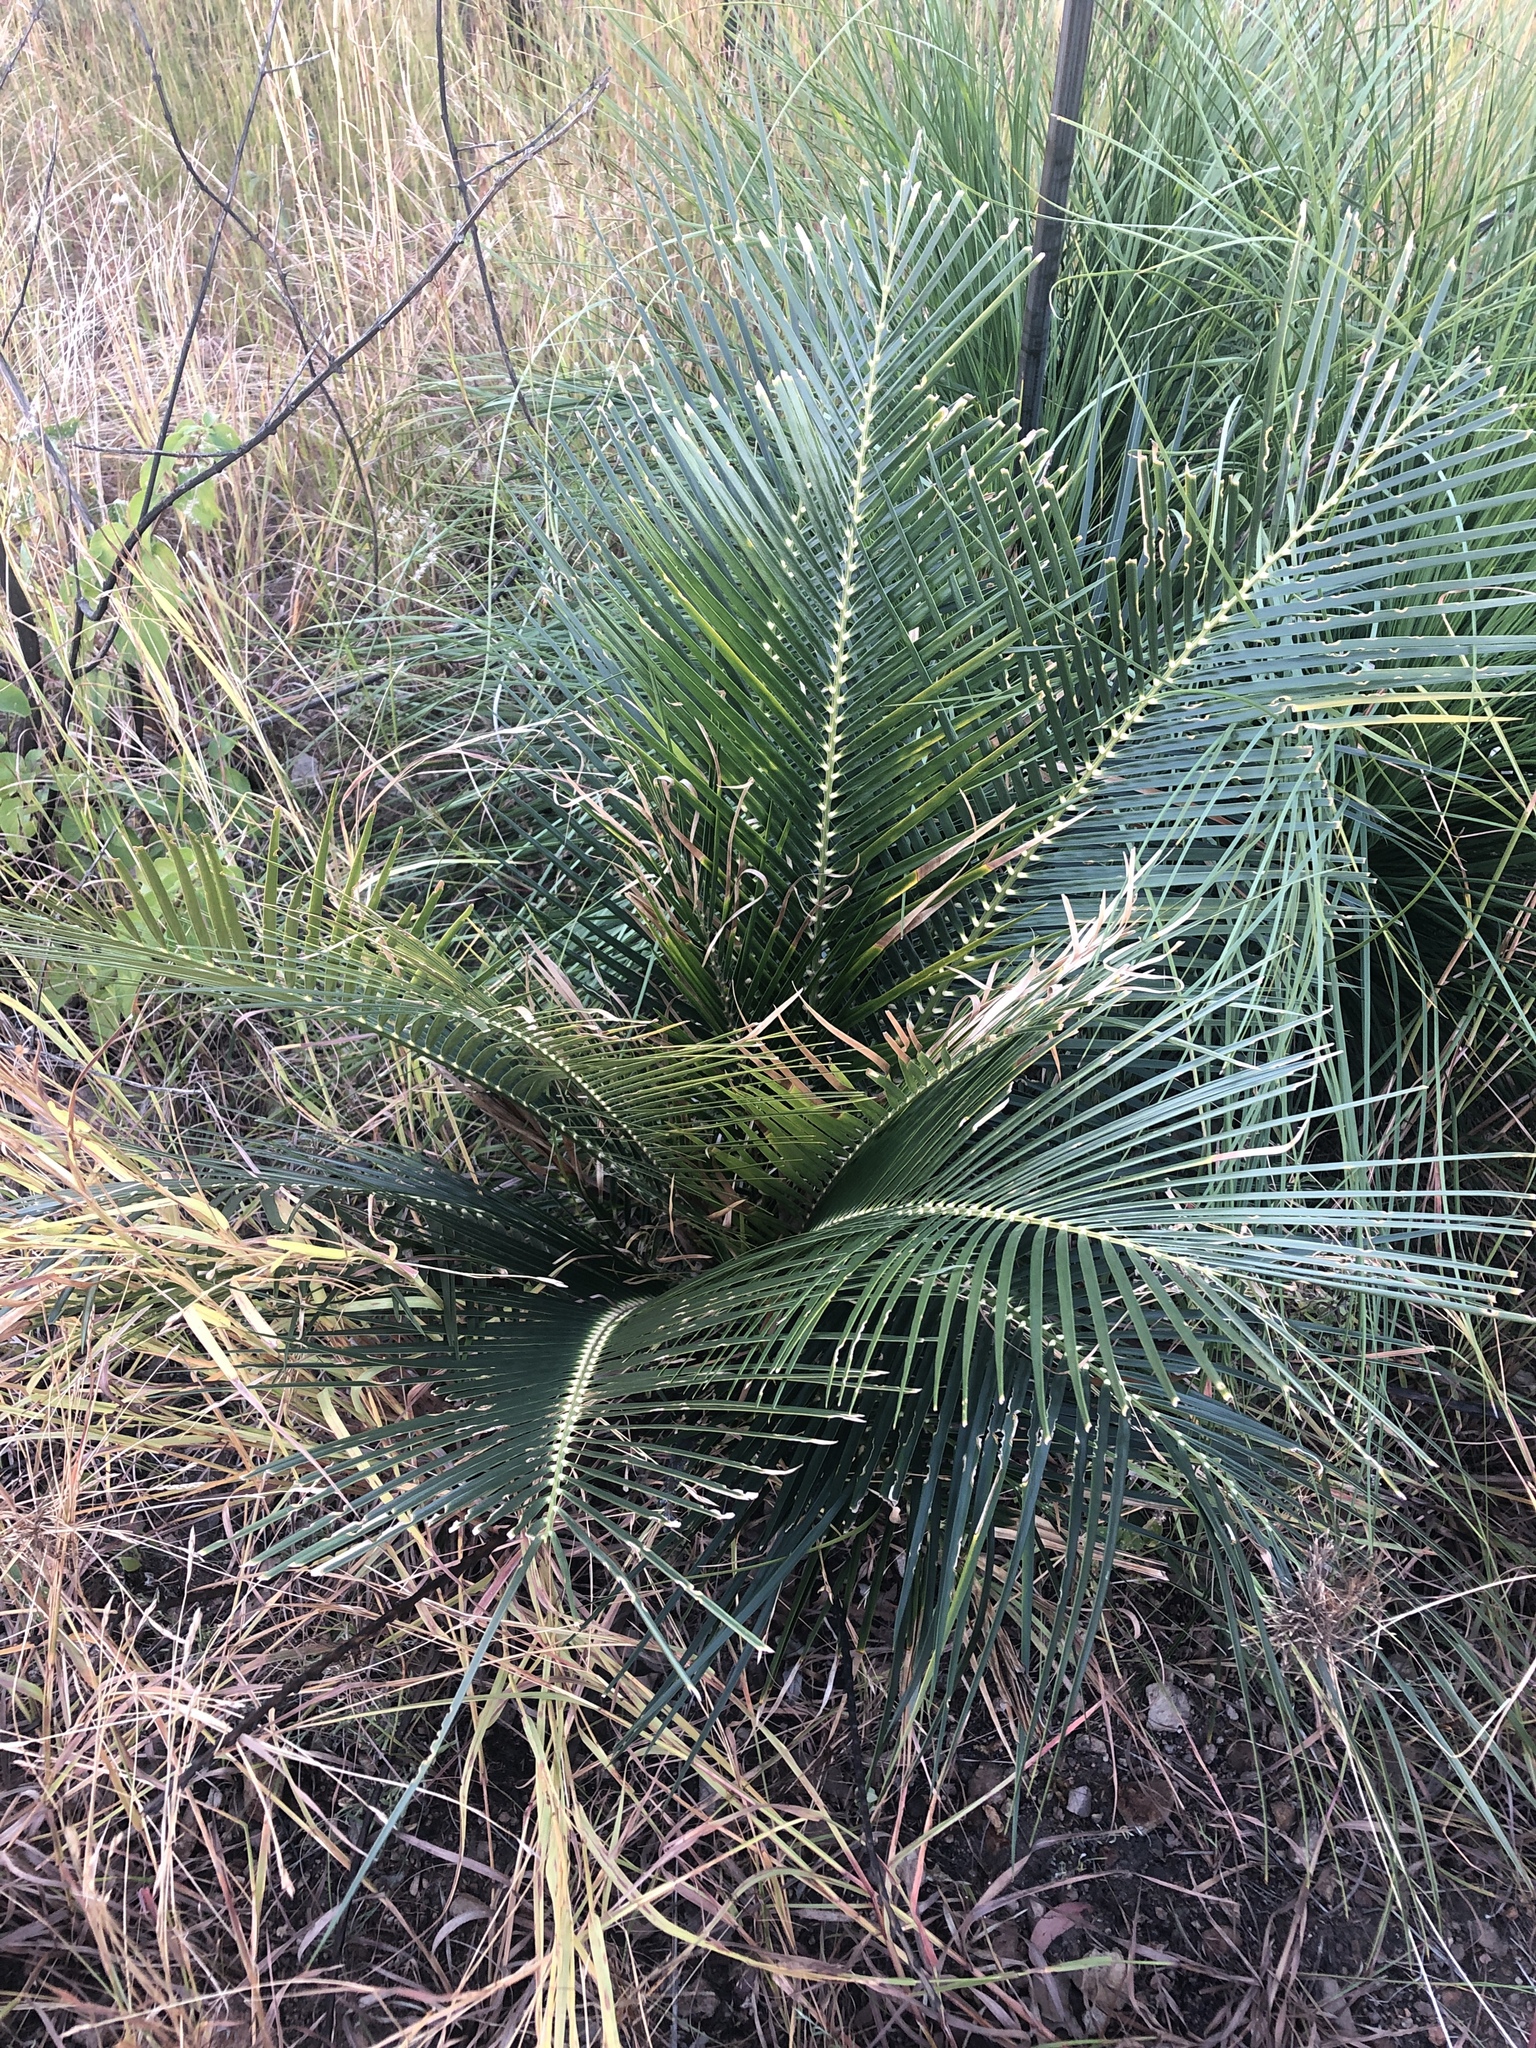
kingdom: Plantae
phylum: Tracheophyta
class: Cycadopsida
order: Cycadales
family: Zamiaceae
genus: Macrozamia
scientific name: Macrozamia macleayi
